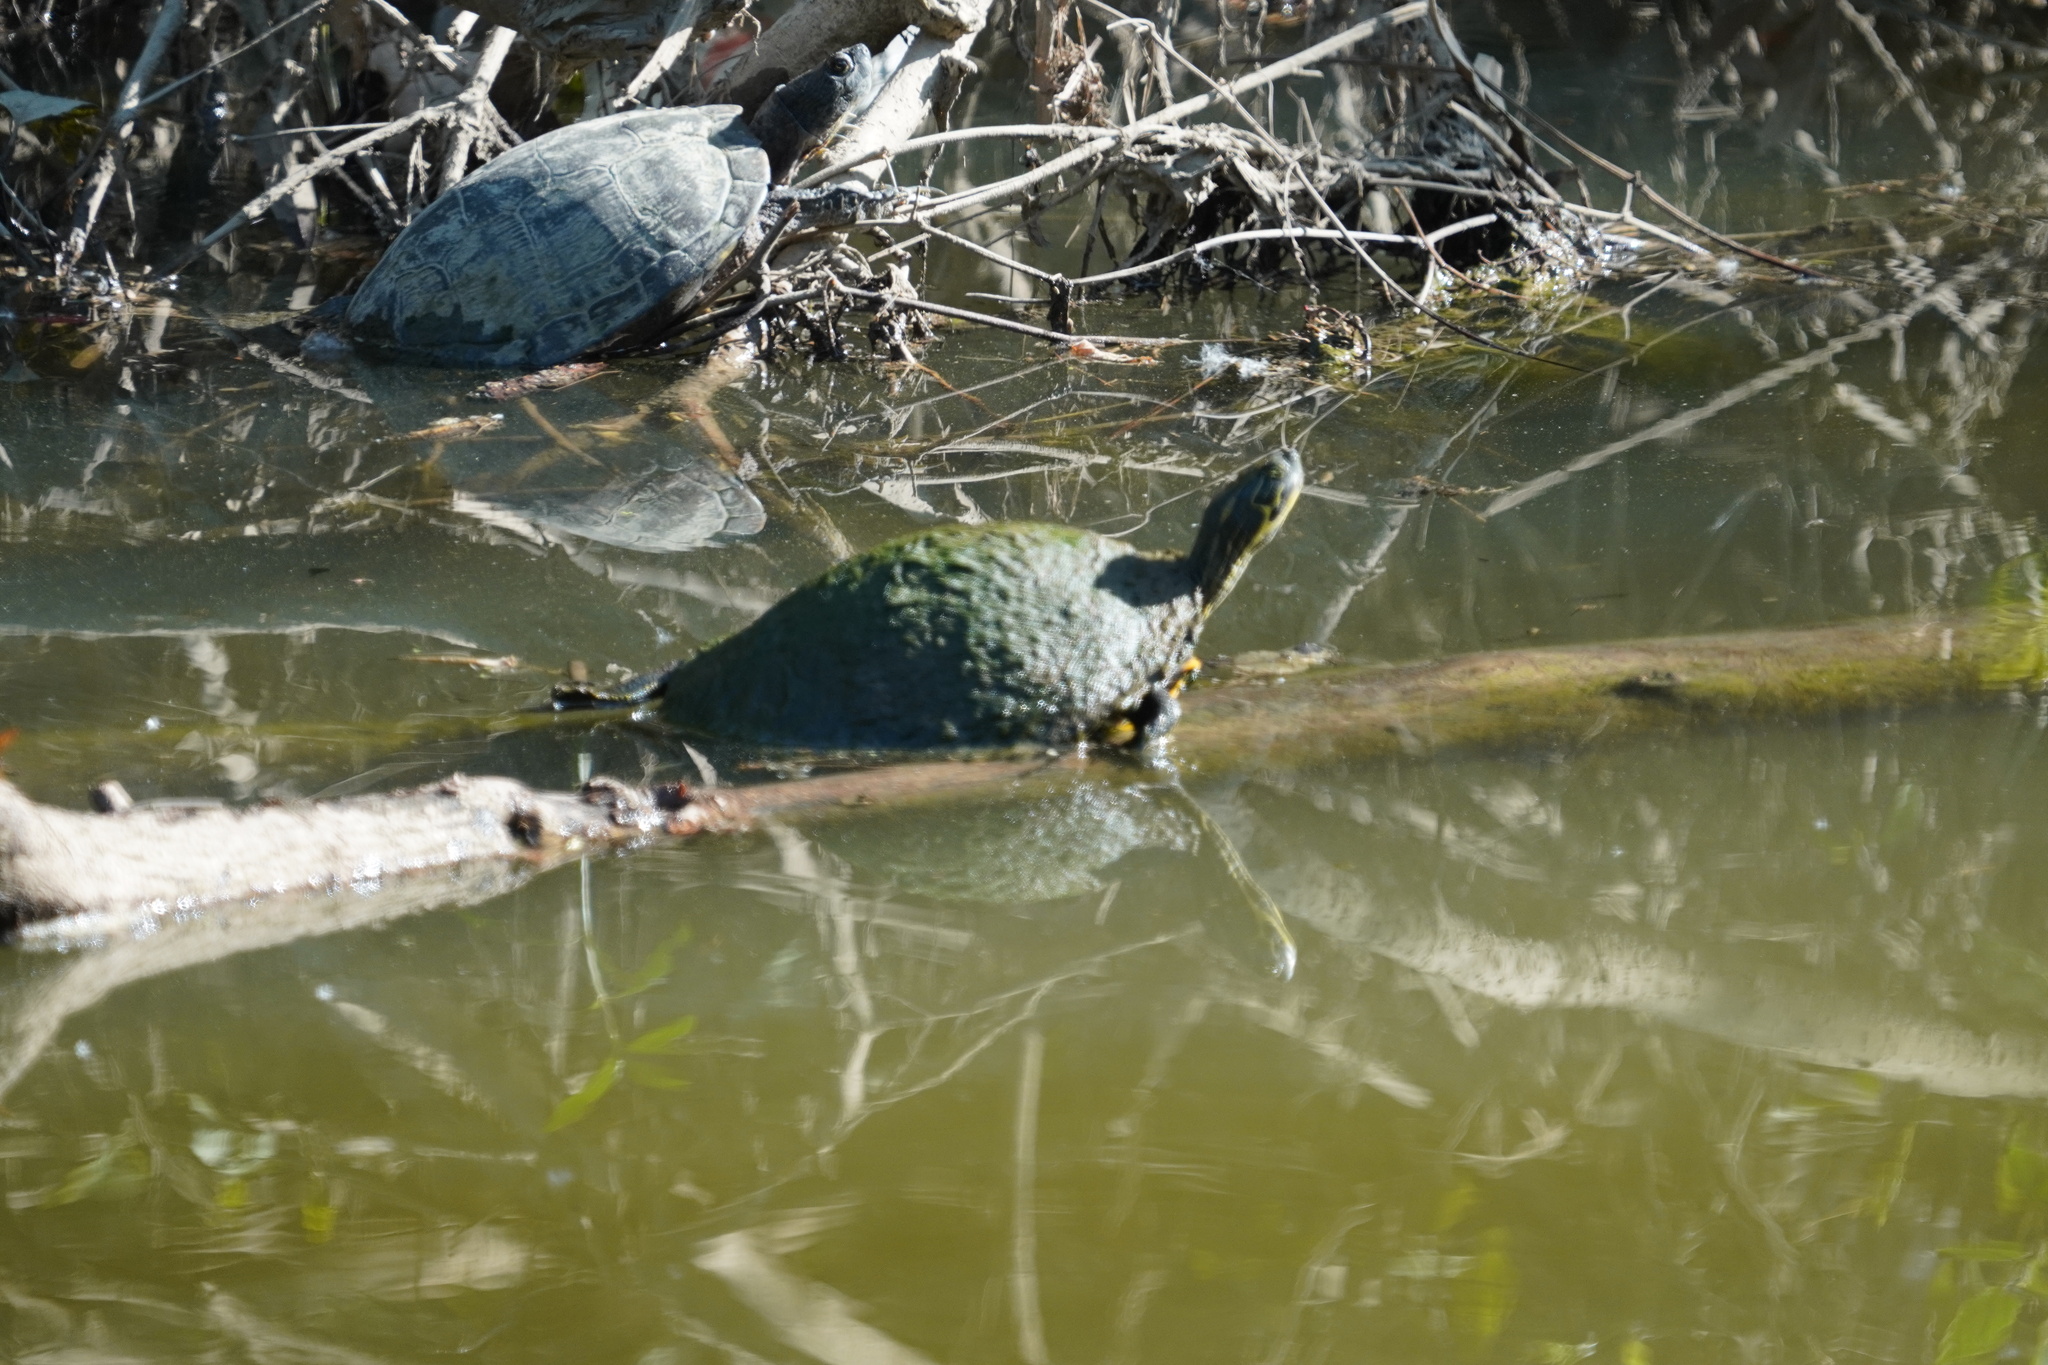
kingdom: Animalia
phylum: Chordata
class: Testudines
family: Emydidae
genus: Pseudemys
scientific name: Pseudemys concinna
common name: Eastern river cooter
